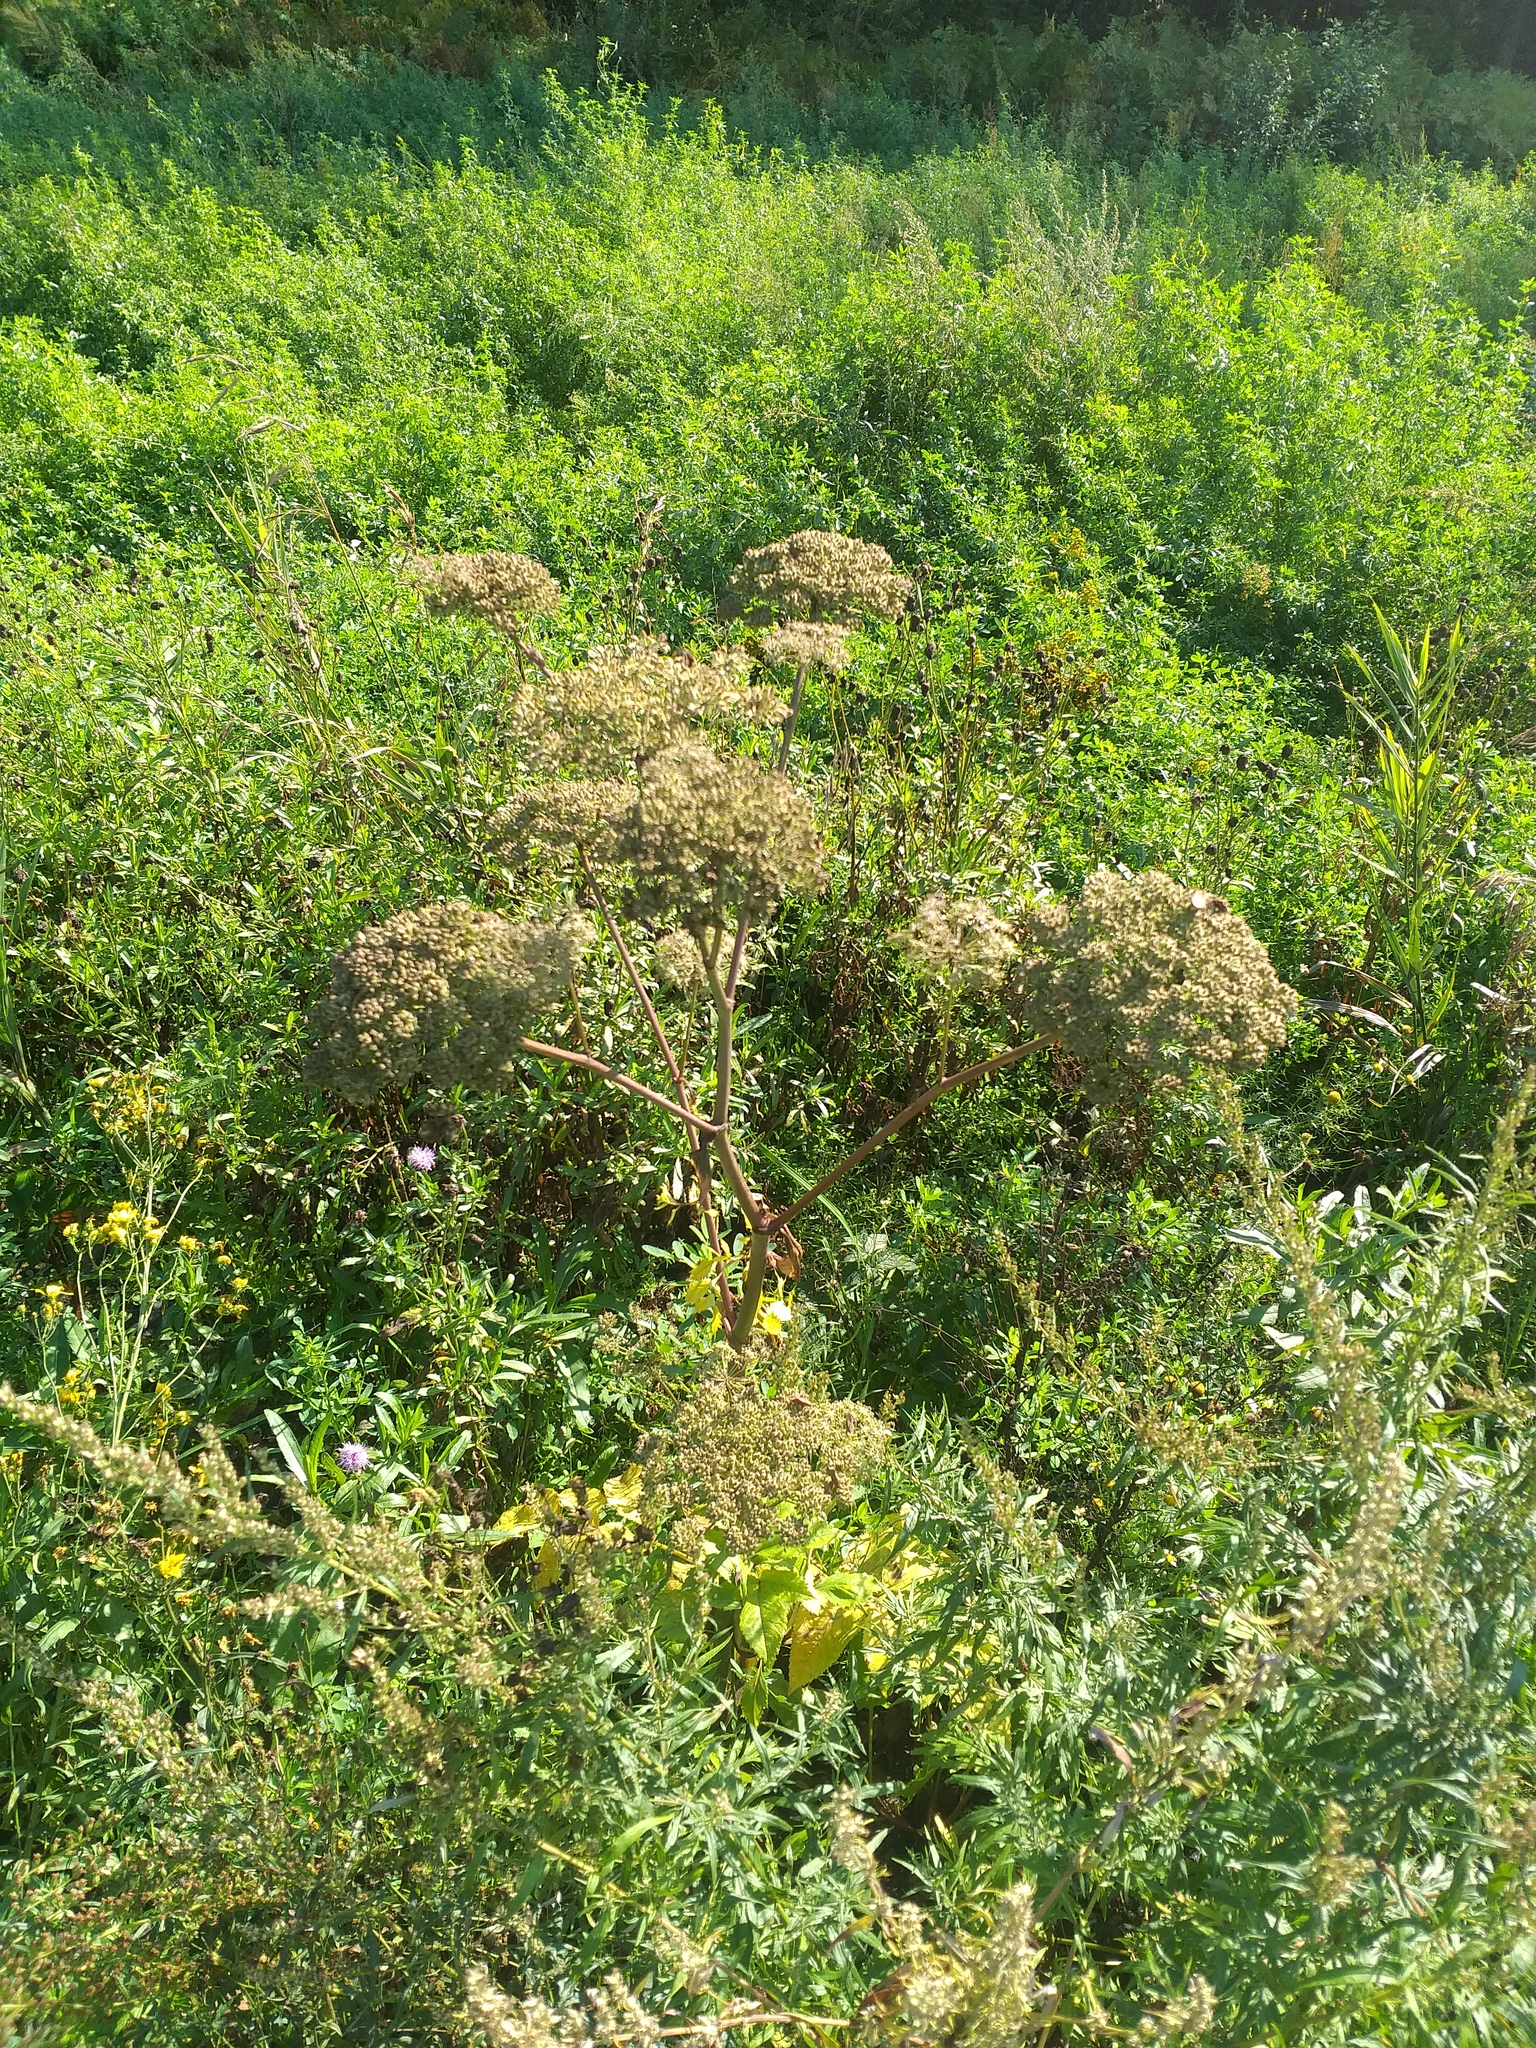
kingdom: Plantae
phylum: Tracheophyta
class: Magnoliopsida
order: Apiales
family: Apiaceae
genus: Angelica
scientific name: Angelica sylvestris
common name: Wild angelica
